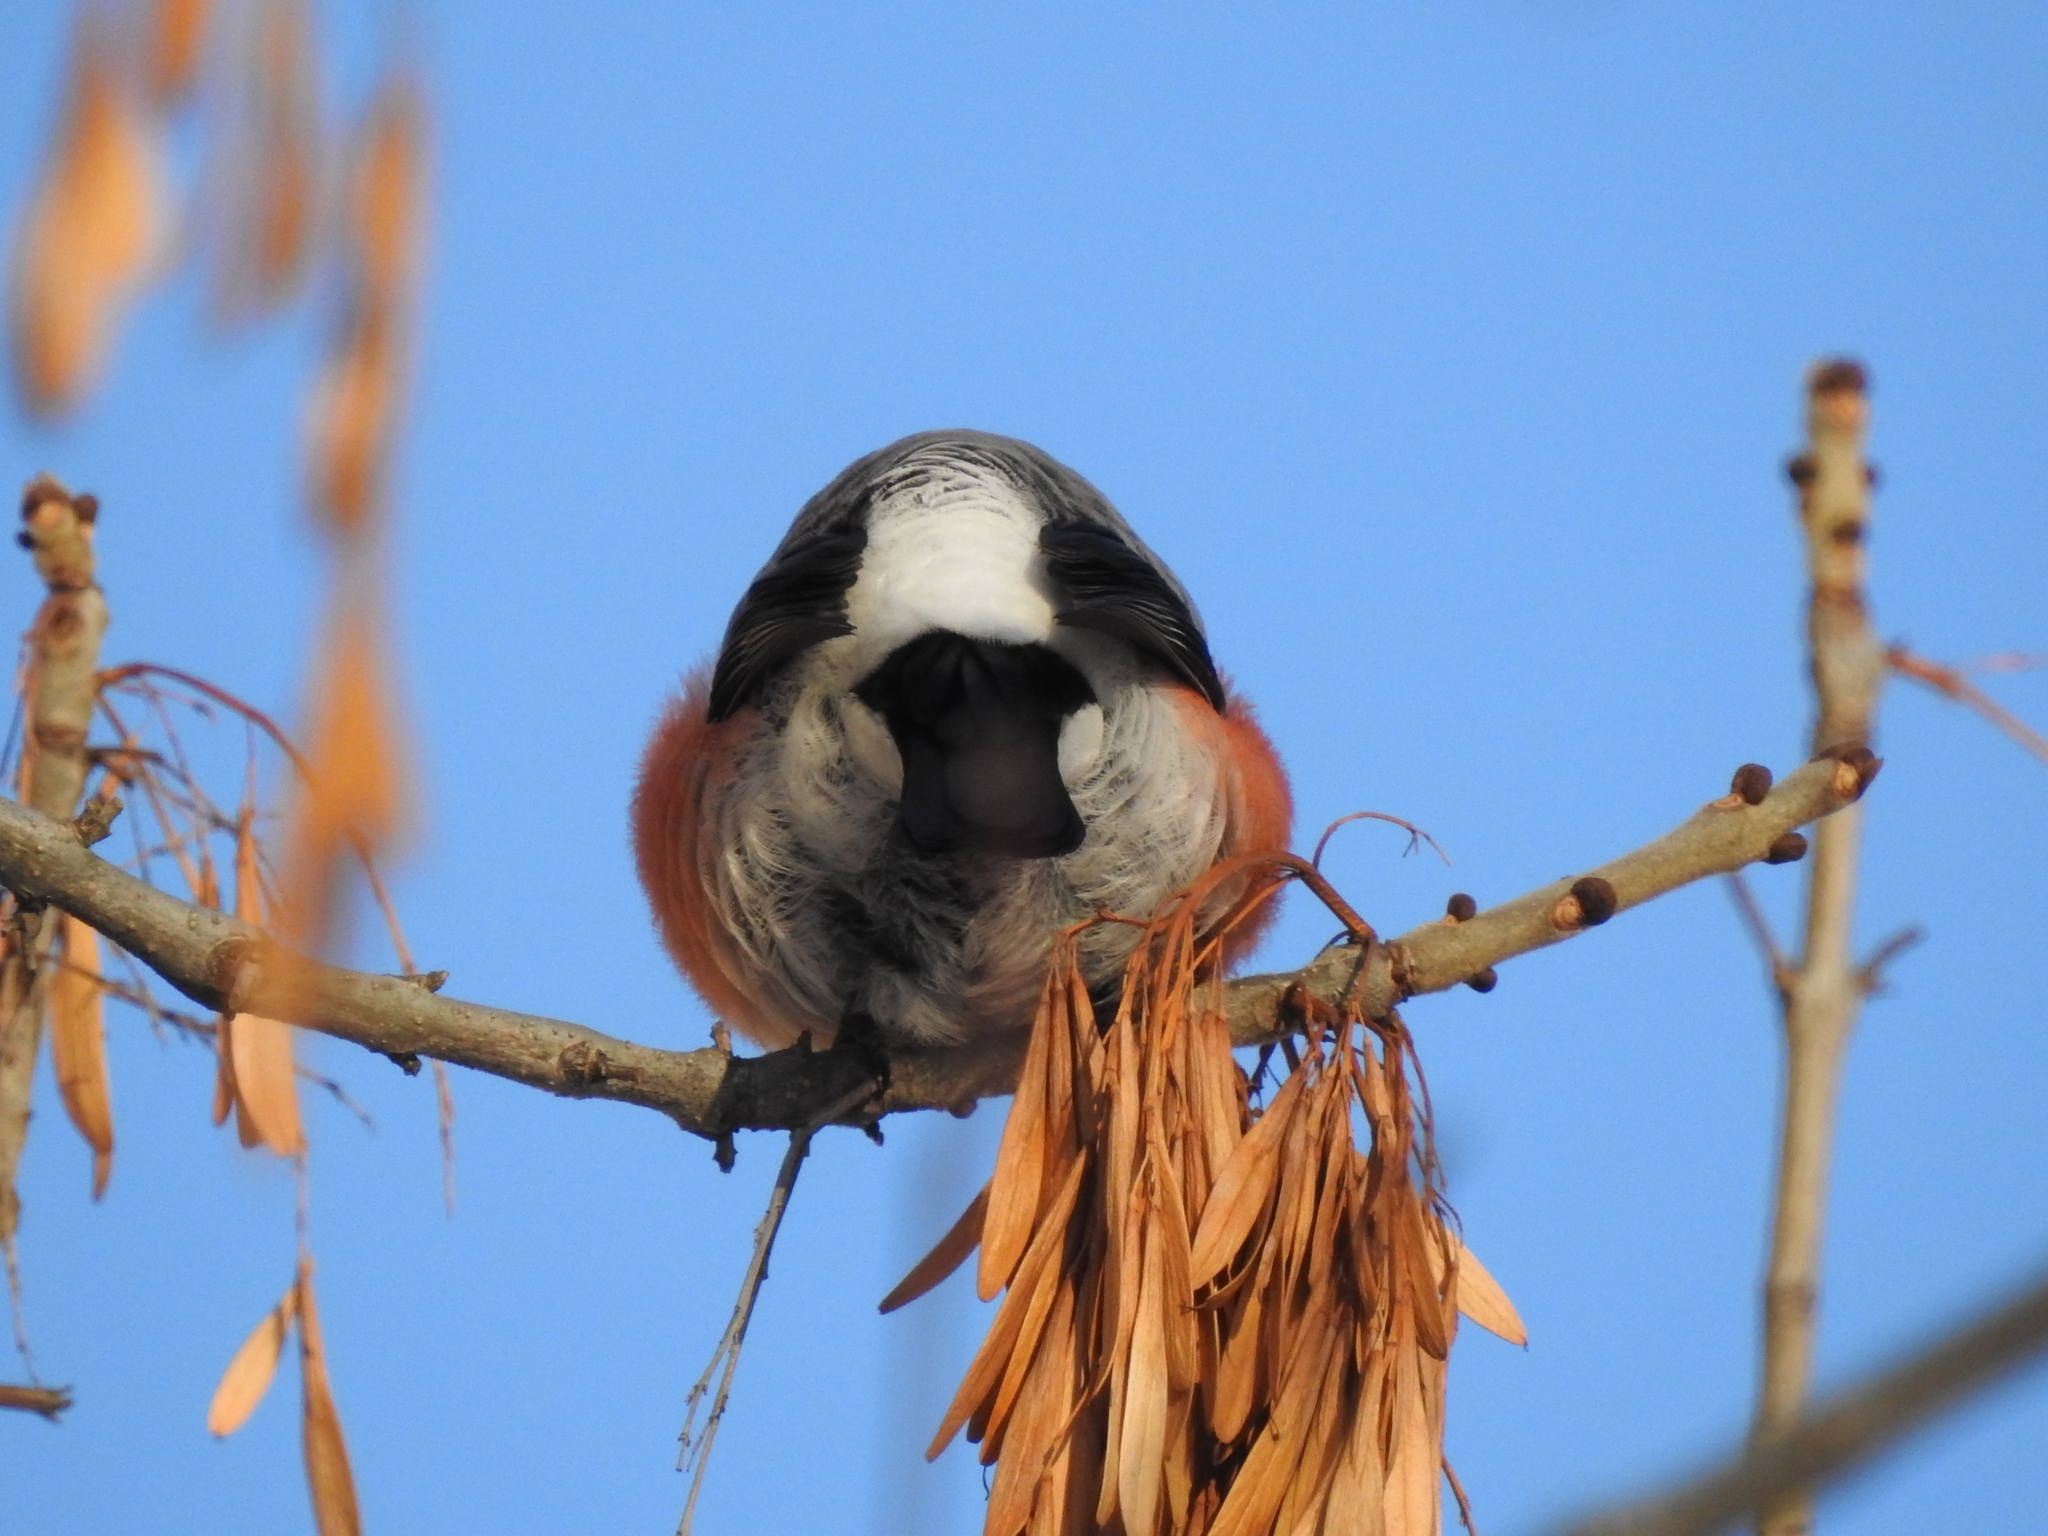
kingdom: Animalia
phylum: Chordata
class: Aves
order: Passeriformes
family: Fringillidae
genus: Pyrrhula
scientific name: Pyrrhula pyrrhula
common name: Eurasian bullfinch
